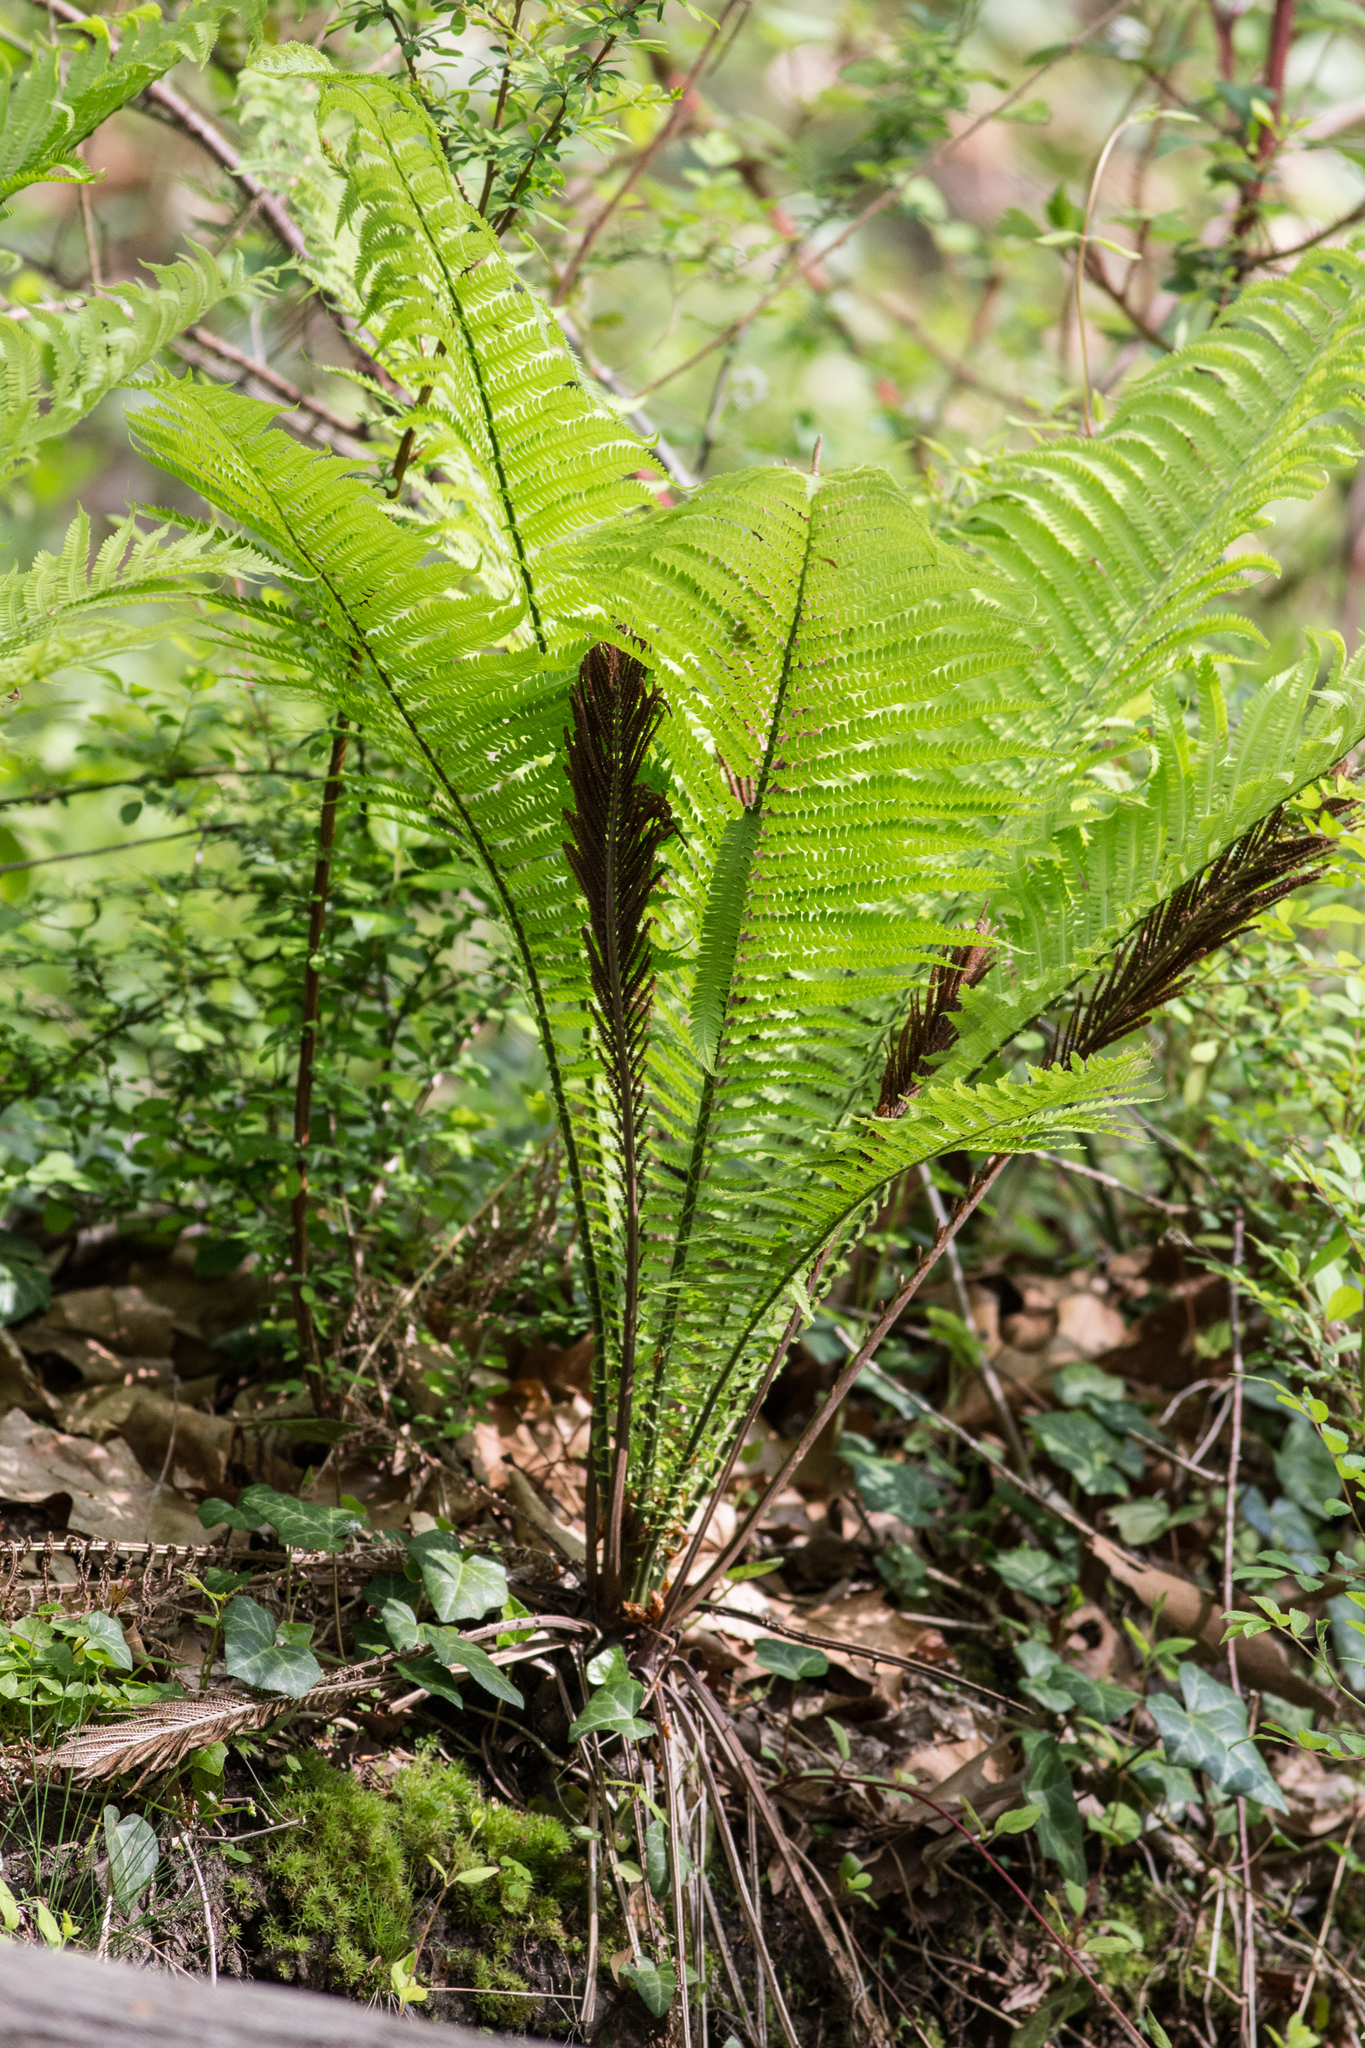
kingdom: Plantae
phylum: Tracheophyta
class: Polypodiopsida
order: Polypodiales
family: Onocleaceae
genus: Matteuccia
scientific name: Matteuccia struthiopteris
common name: Ostrich fern
